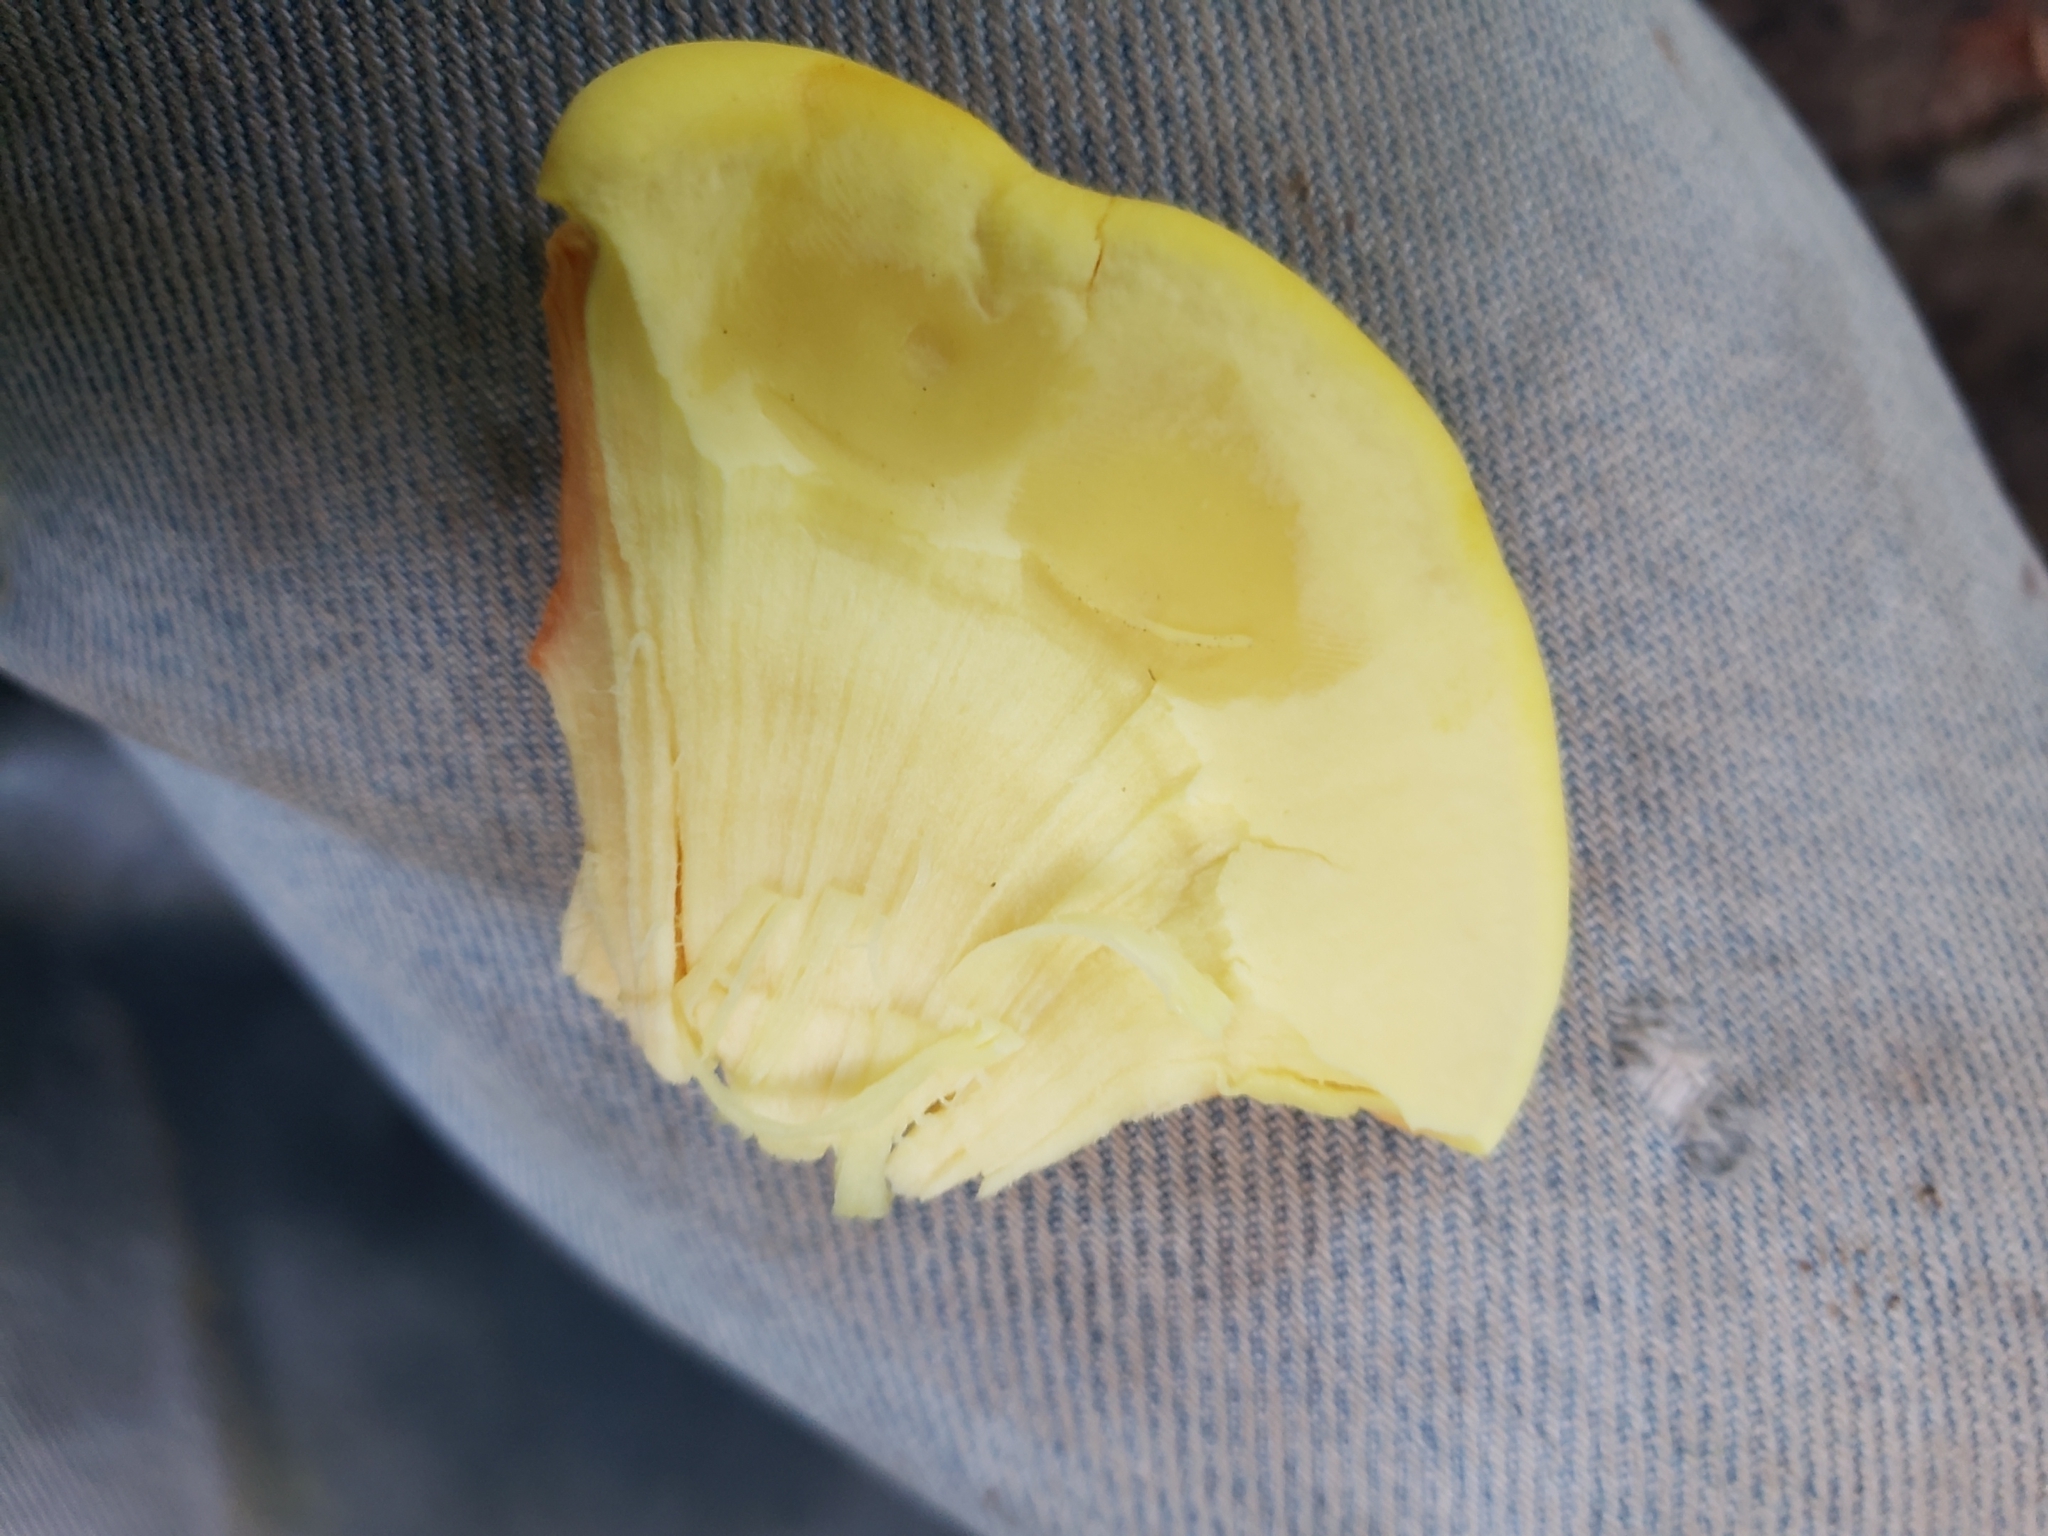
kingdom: Fungi
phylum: Basidiomycota
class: Agaricomycetes
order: Polyporales
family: Laetiporaceae
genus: Laetiporus
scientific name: Laetiporus sulphureus
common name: Chicken of the woods
